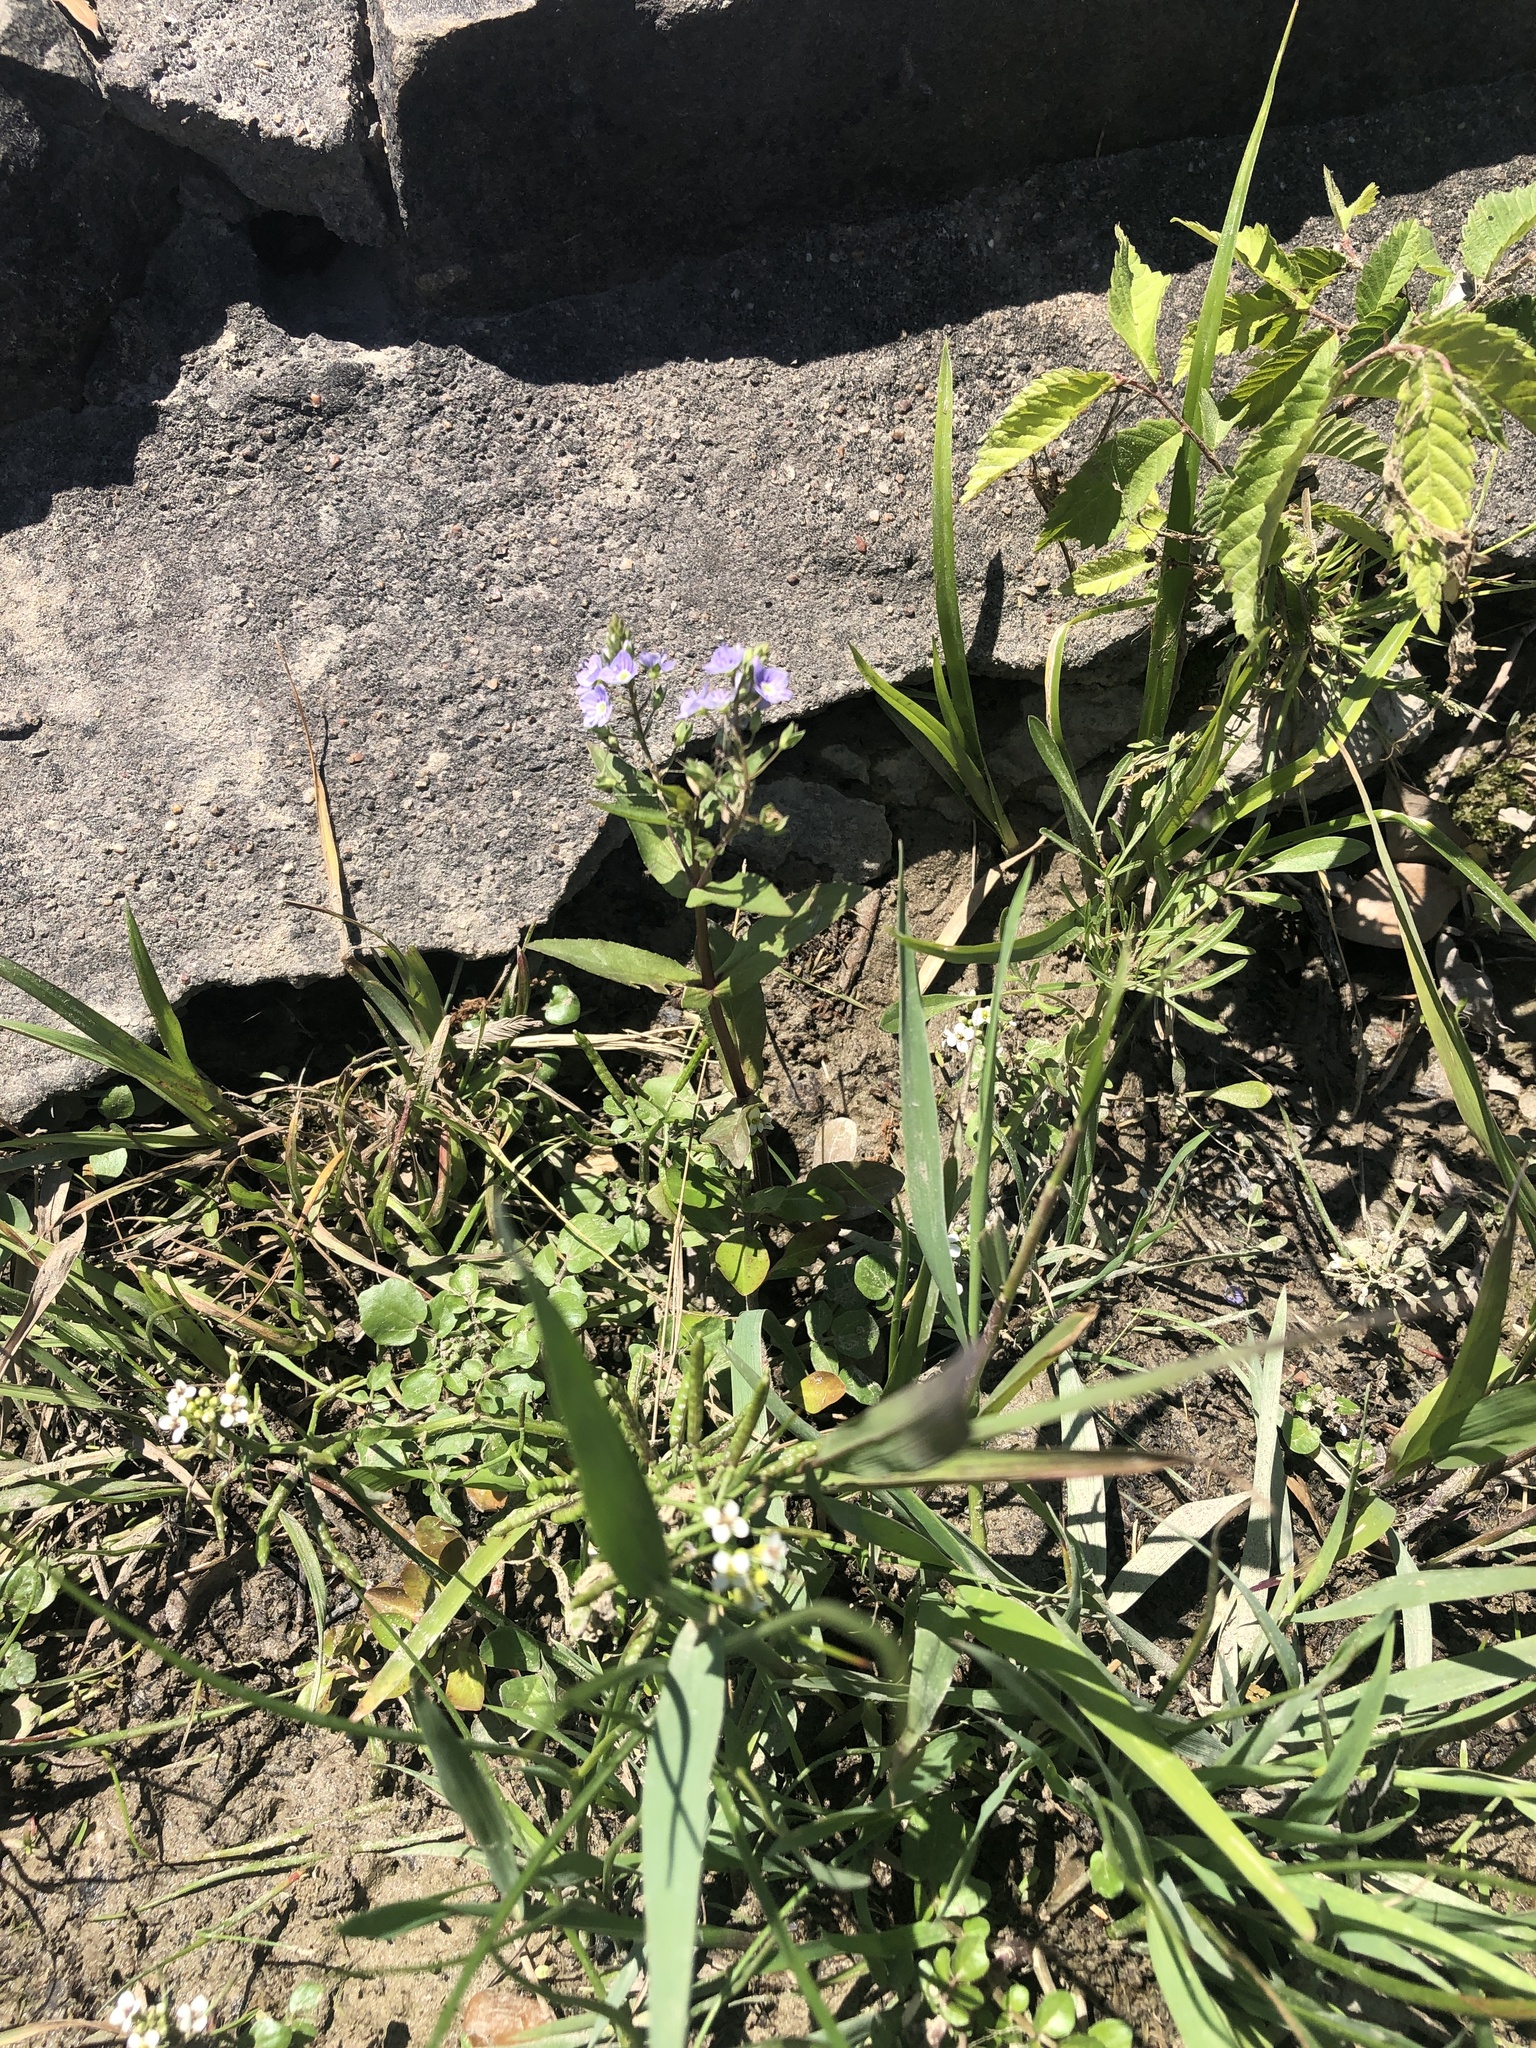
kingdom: Plantae
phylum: Tracheophyta
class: Magnoliopsida
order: Lamiales
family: Plantaginaceae
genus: Veronica
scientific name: Veronica anagallis-aquatica
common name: Water speedwell
